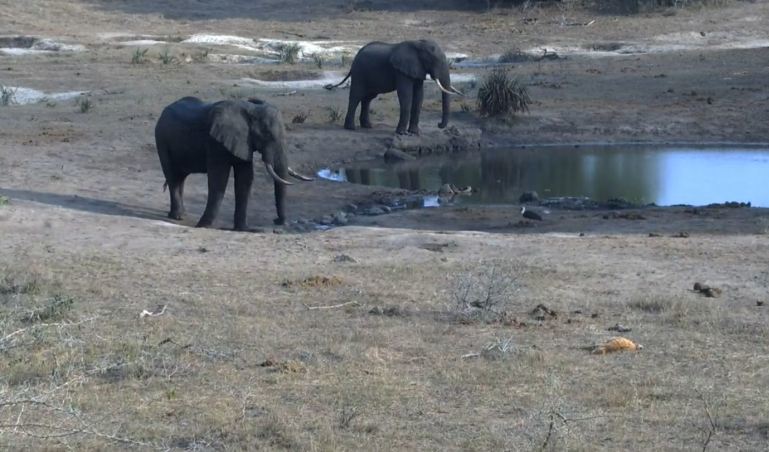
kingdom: Animalia
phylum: Chordata
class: Mammalia
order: Proboscidea
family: Elephantidae
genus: Loxodonta
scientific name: Loxodonta africana
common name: African elephant
